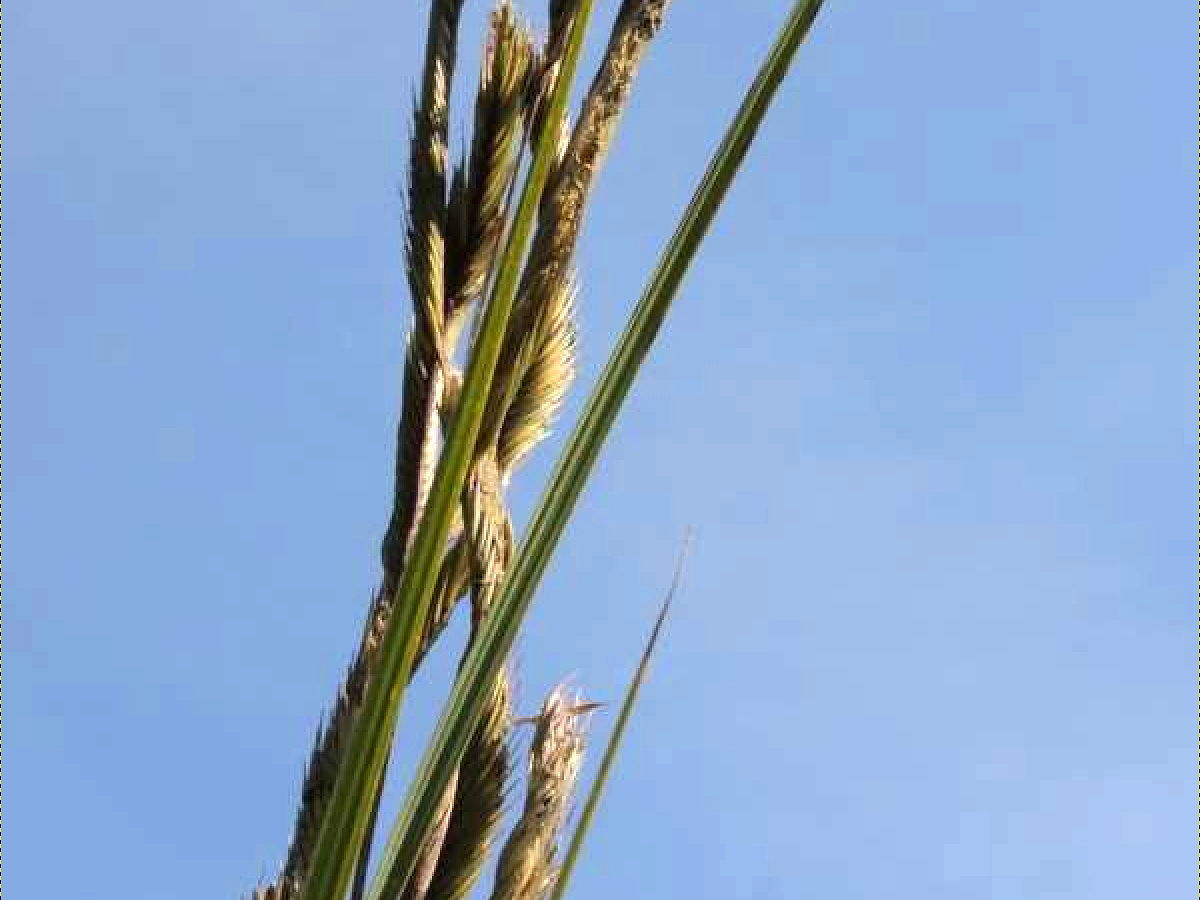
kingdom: Plantae
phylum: Tracheophyta
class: Liliopsida
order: Poales
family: Poaceae
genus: Sporobolus
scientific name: Sporobolus michauxianus
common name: Freshwater cordgrass
